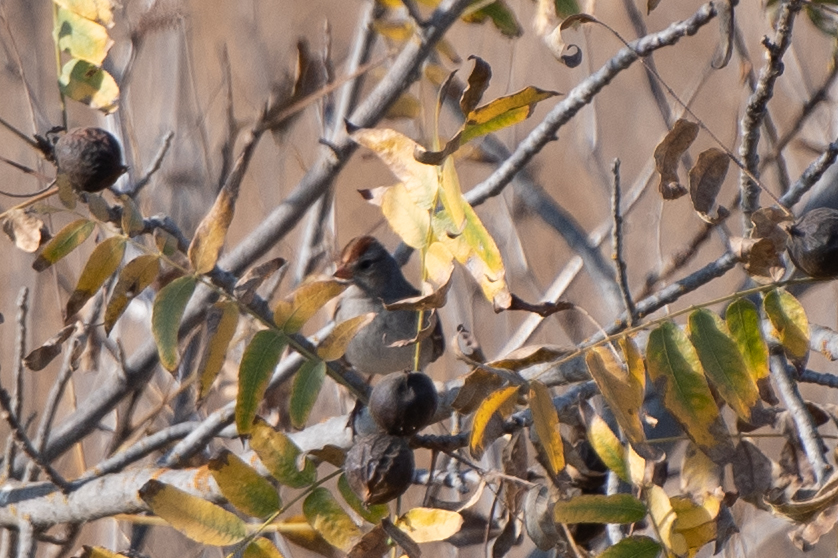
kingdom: Animalia
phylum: Chordata
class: Aves
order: Passeriformes
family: Passerellidae
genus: Zonotrichia
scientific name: Zonotrichia leucophrys
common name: White-crowned sparrow
